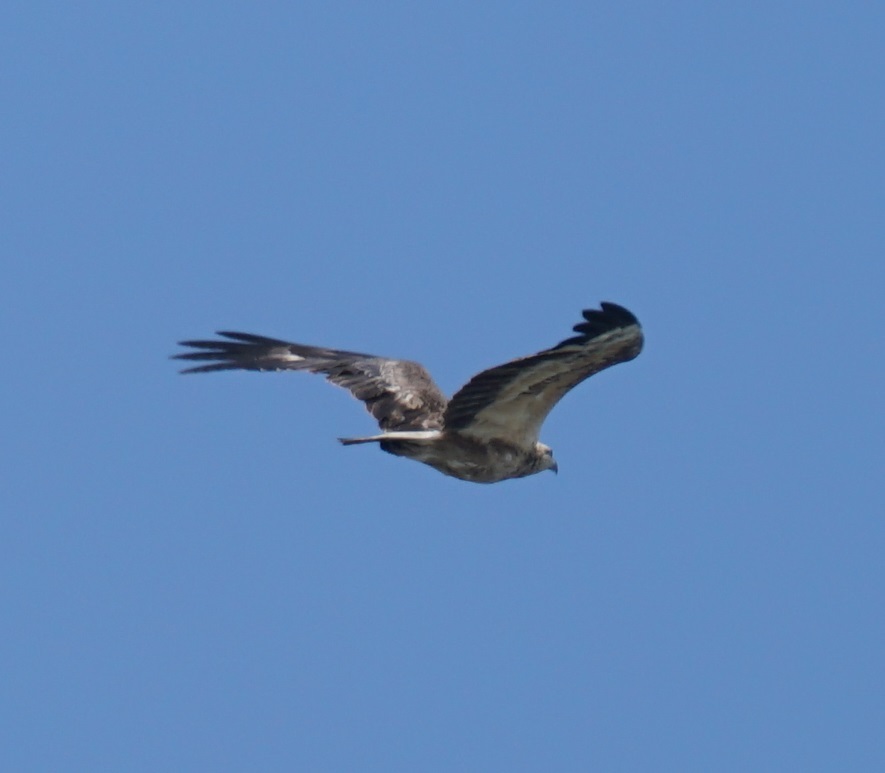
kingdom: Animalia
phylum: Chordata
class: Aves
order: Accipitriformes
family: Accipitridae
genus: Haliaeetus
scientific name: Haliaeetus leucogaster
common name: White-bellied sea eagle
